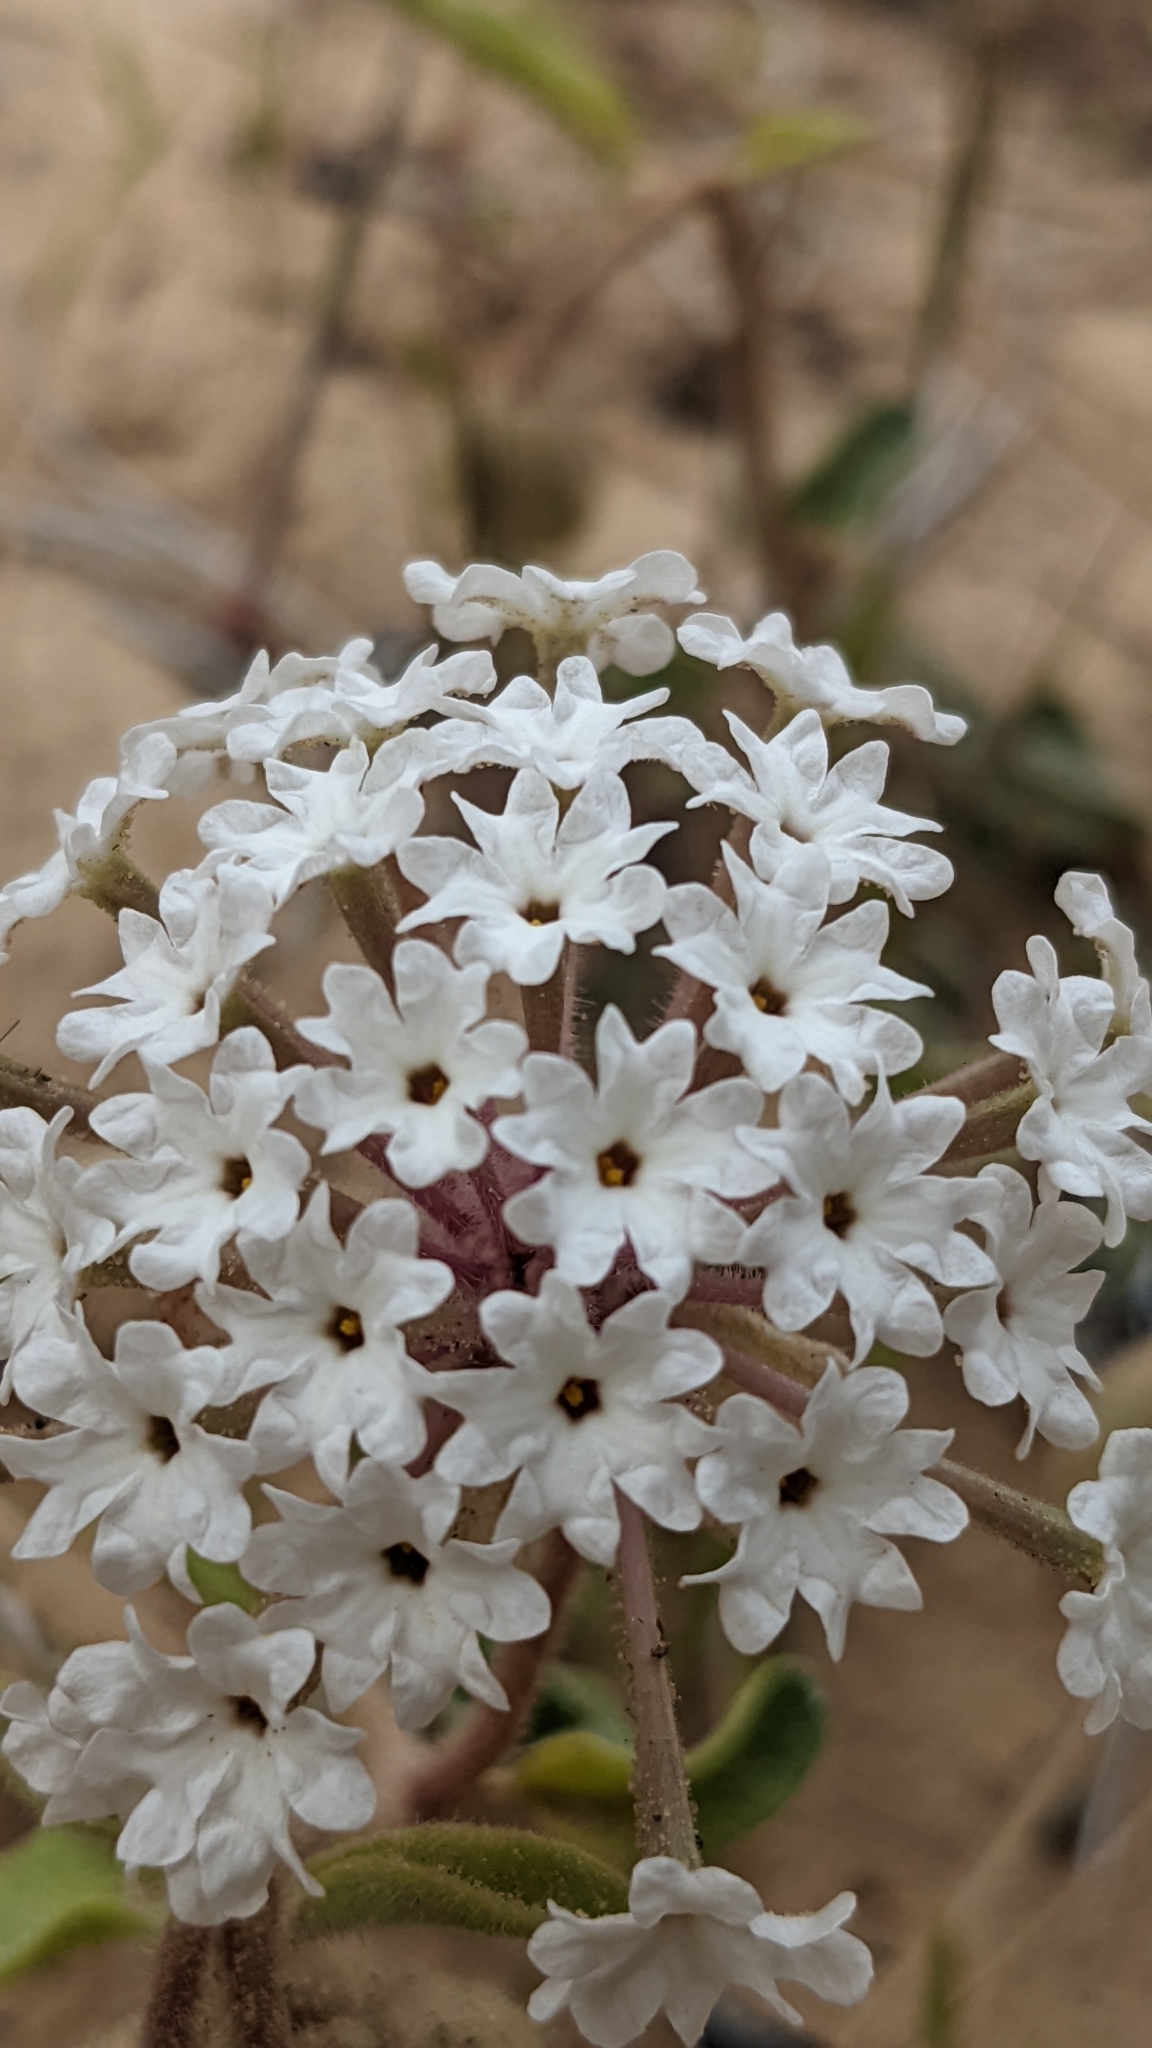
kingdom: Plantae
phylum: Tracheophyta
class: Magnoliopsida
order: Caryophyllales
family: Nyctaginaceae
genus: Abronia
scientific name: Abronia elliptica
